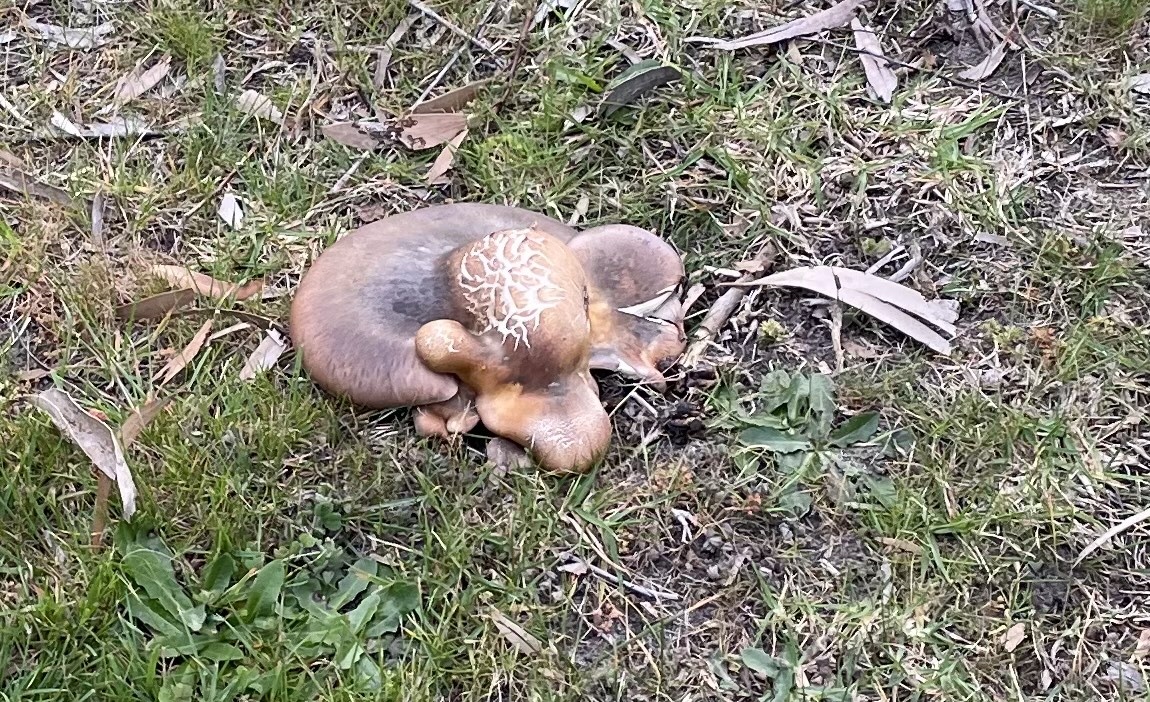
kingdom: Fungi
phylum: Basidiomycota
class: Agaricomycetes
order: Agaricales
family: Omphalotaceae
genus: Omphalotus
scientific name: Omphalotus nidiformis
